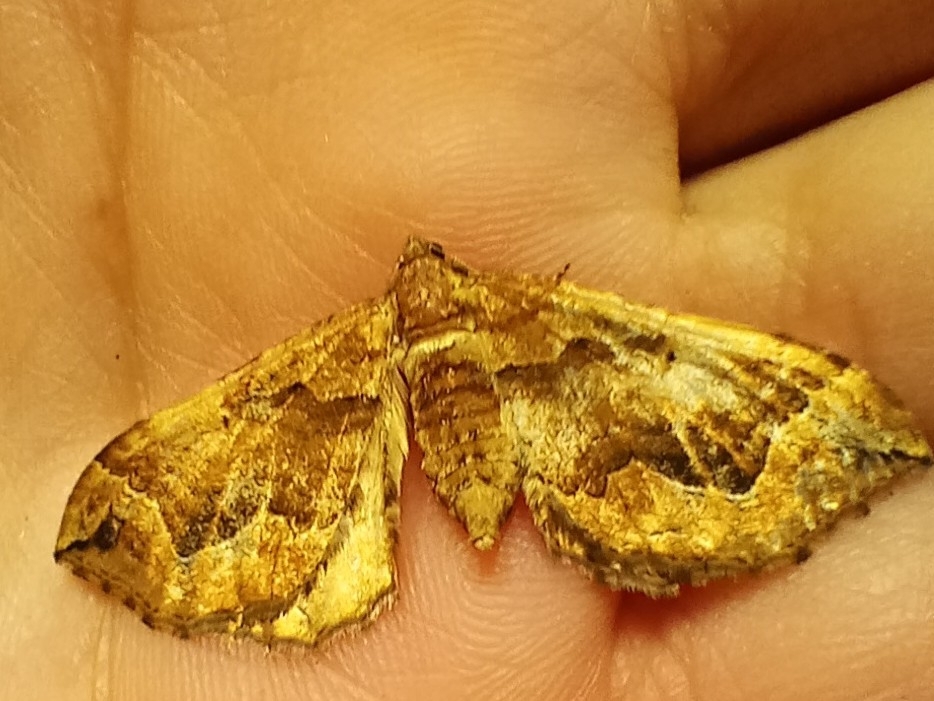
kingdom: Animalia
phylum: Arthropoda
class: Insecta
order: Lepidoptera
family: Geometridae
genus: Pelurga
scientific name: Pelurga comitata
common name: Dark spinach
